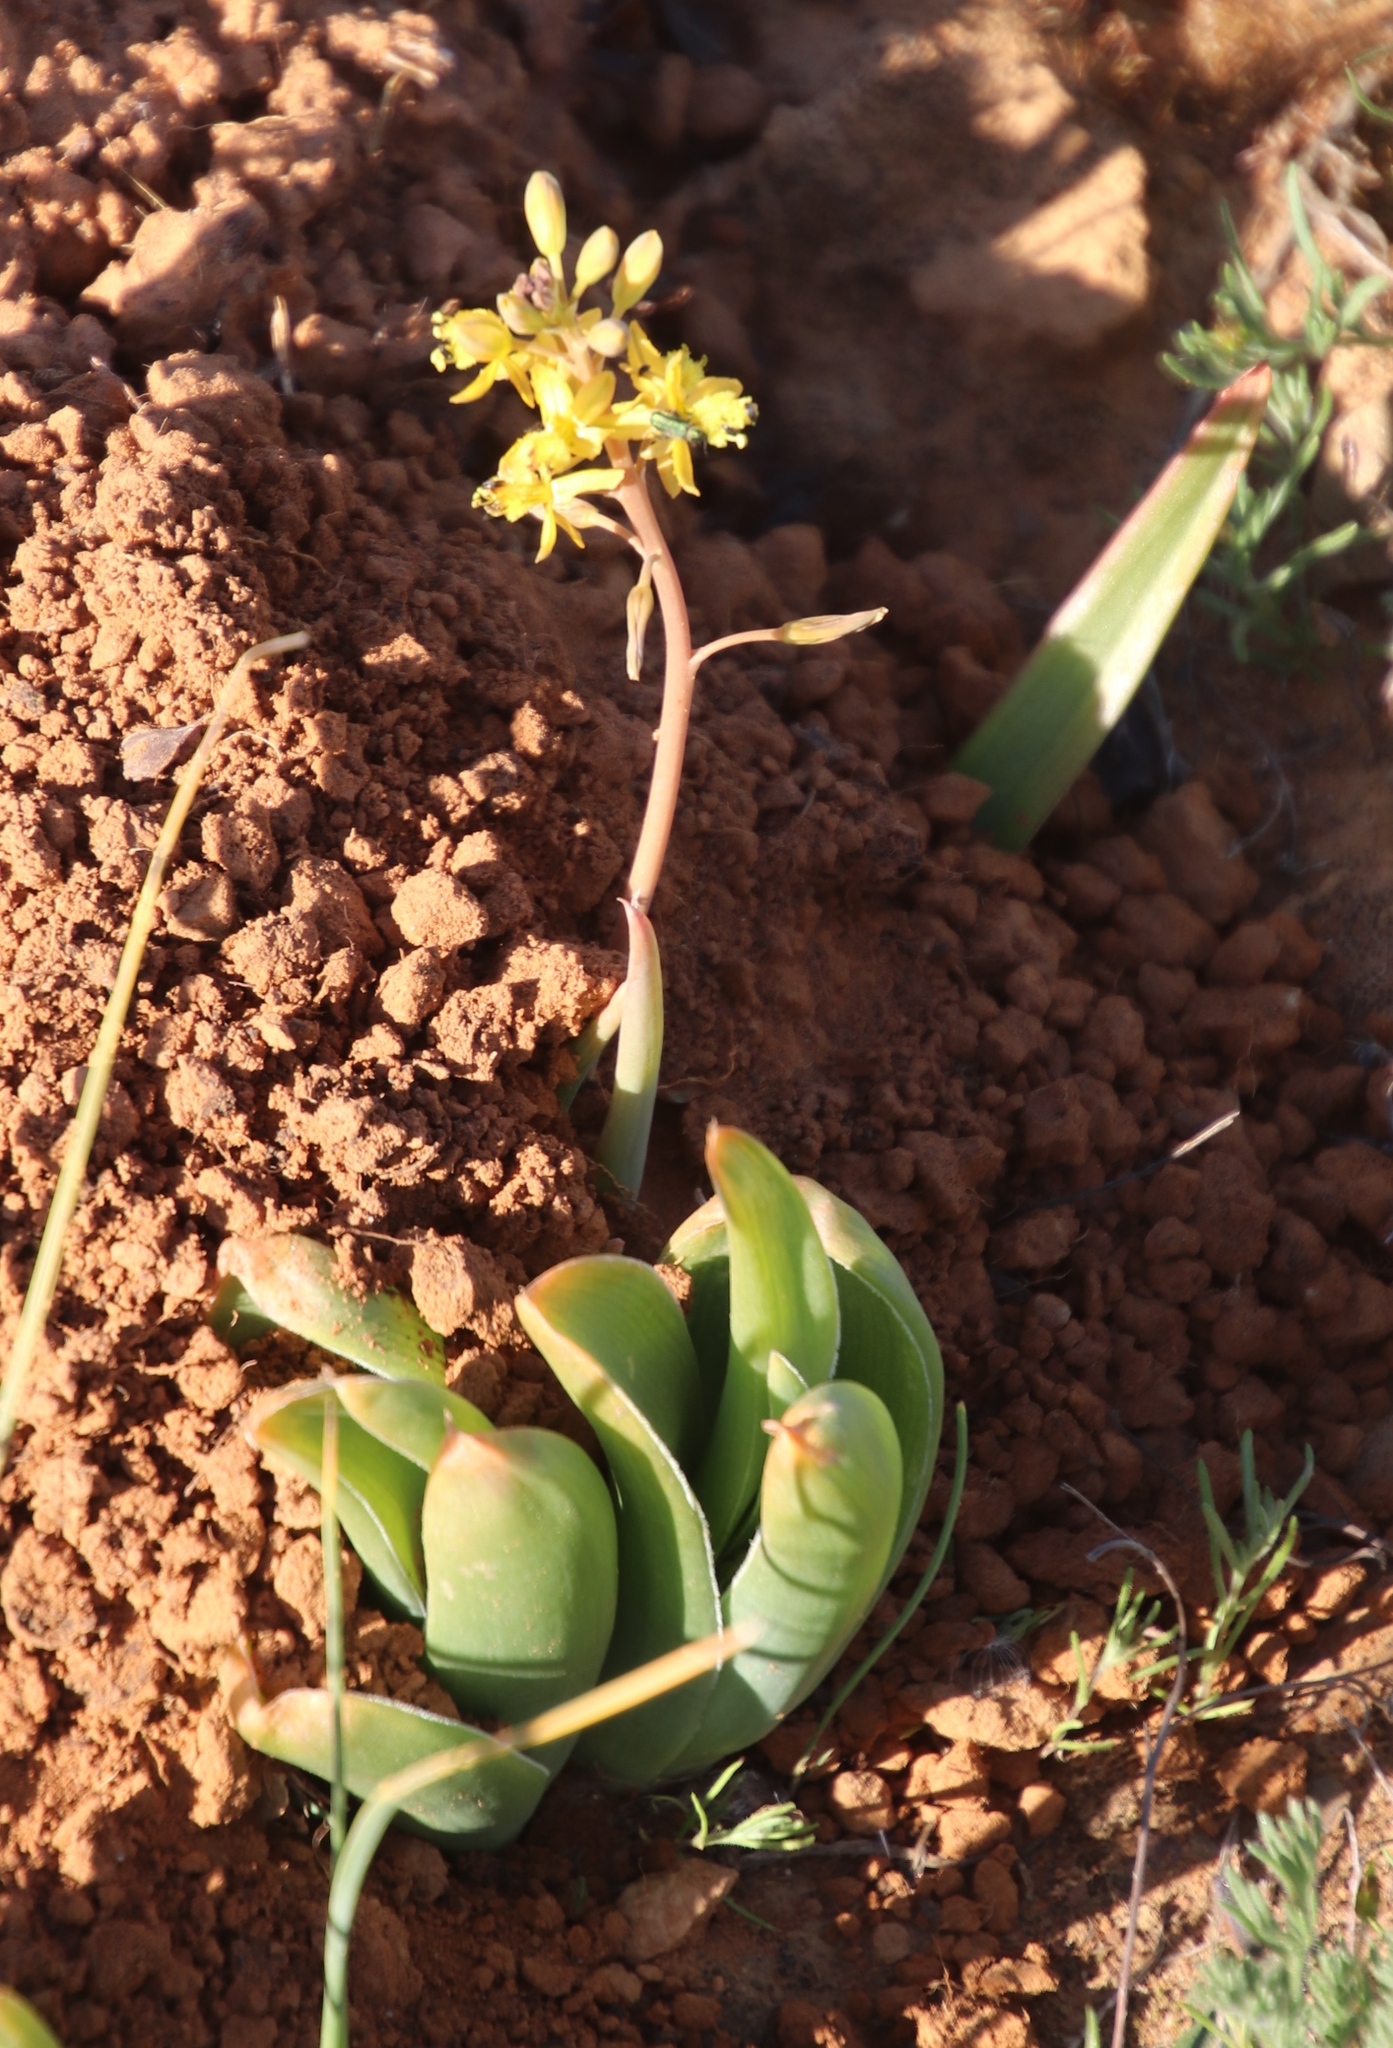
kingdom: Plantae
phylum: Tracheophyta
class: Liliopsida
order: Asparagales
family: Asphodelaceae
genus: Bulbine
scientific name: Bulbine navicularifolia
